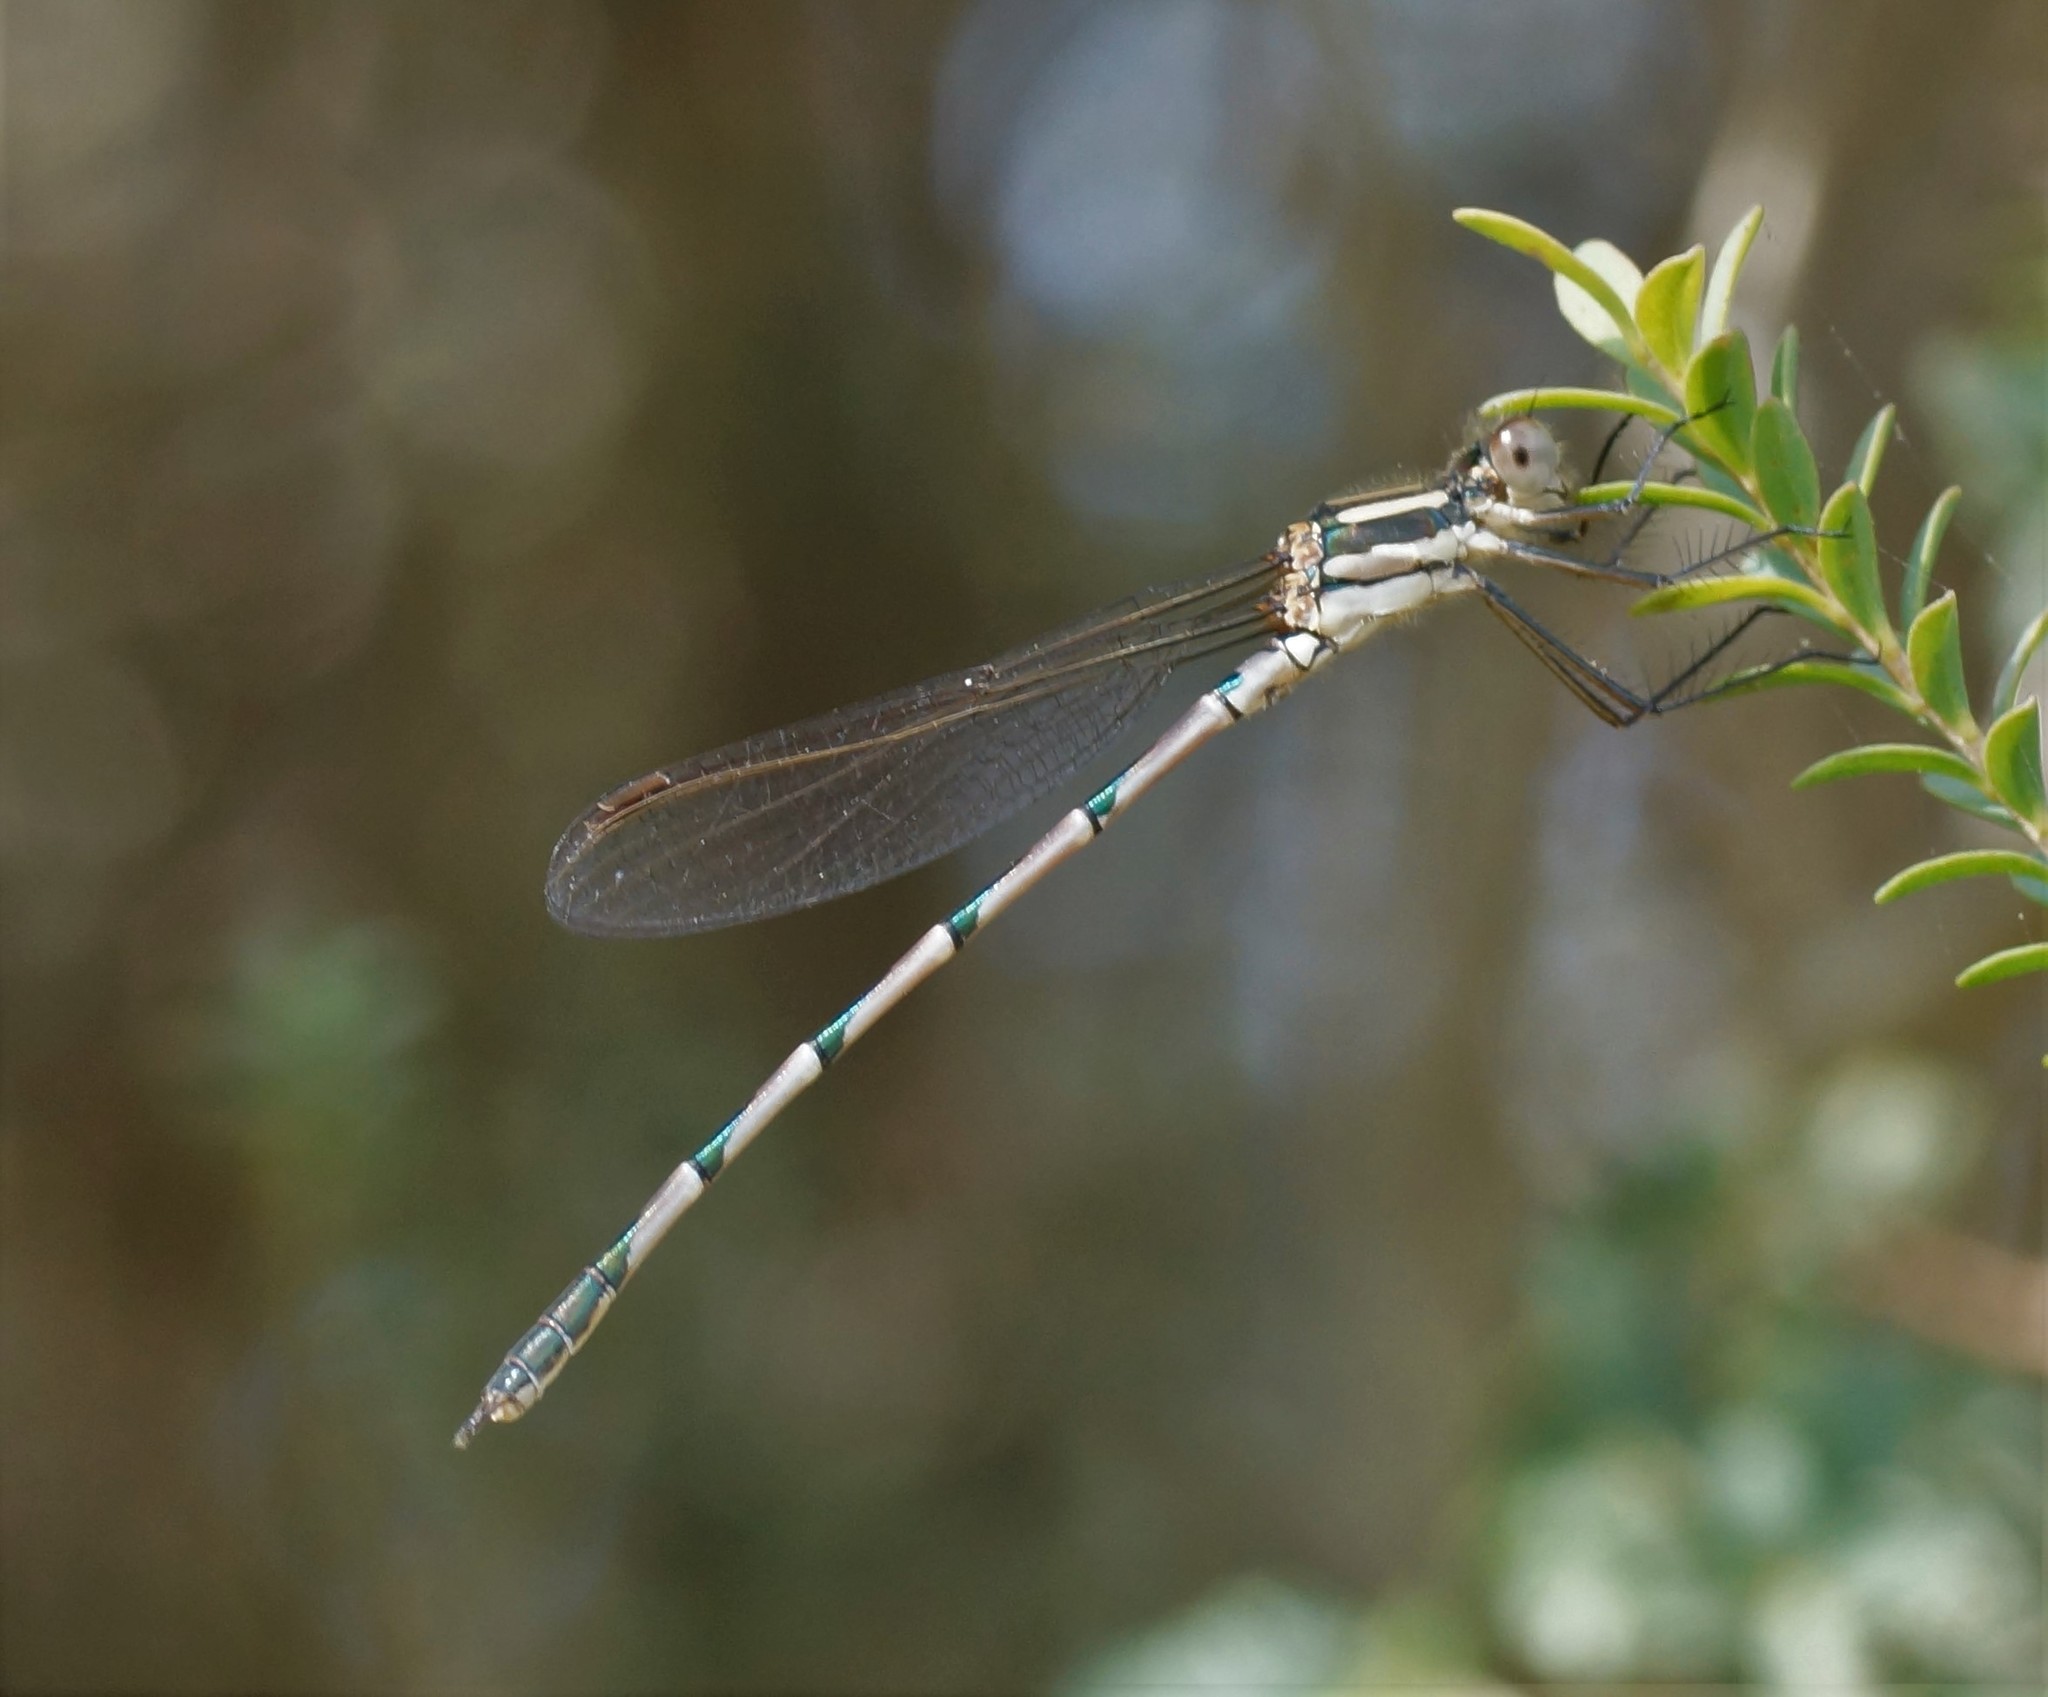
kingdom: Animalia
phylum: Arthropoda
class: Insecta
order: Odonata
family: Lestidae
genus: Austrolestes
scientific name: Austrolestes annulosus
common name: Blue ringtail
